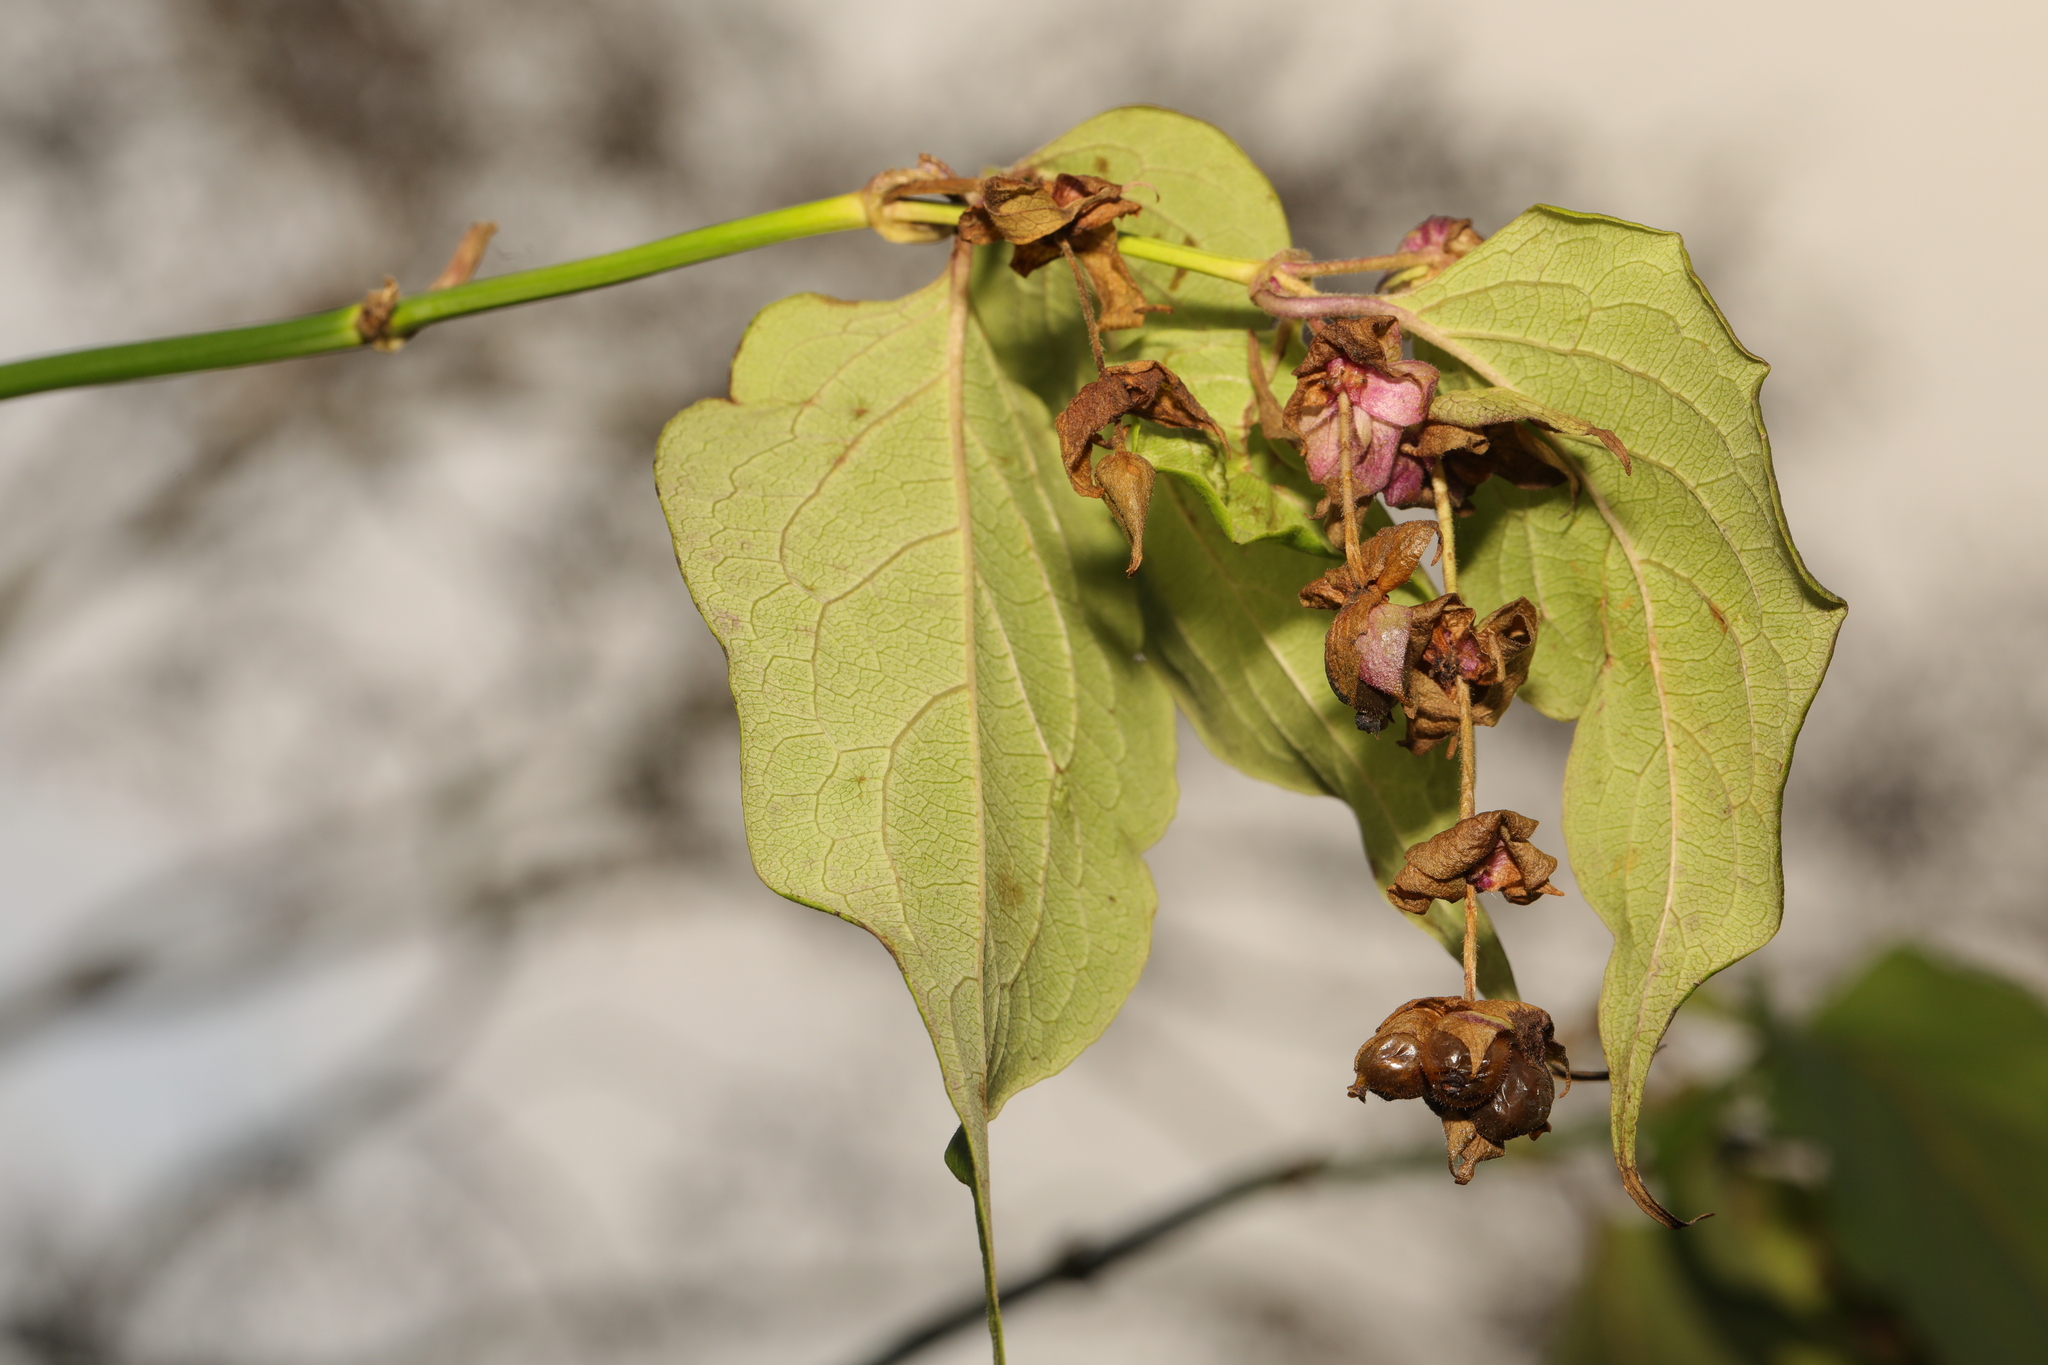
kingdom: Plantae
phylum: Tracheophyta
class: Magnoliopsida
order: Dipsacales
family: Caprifoliaceae
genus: Leycesteria
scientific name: Leycesteria formosa
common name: Himalayan honeysuckle
